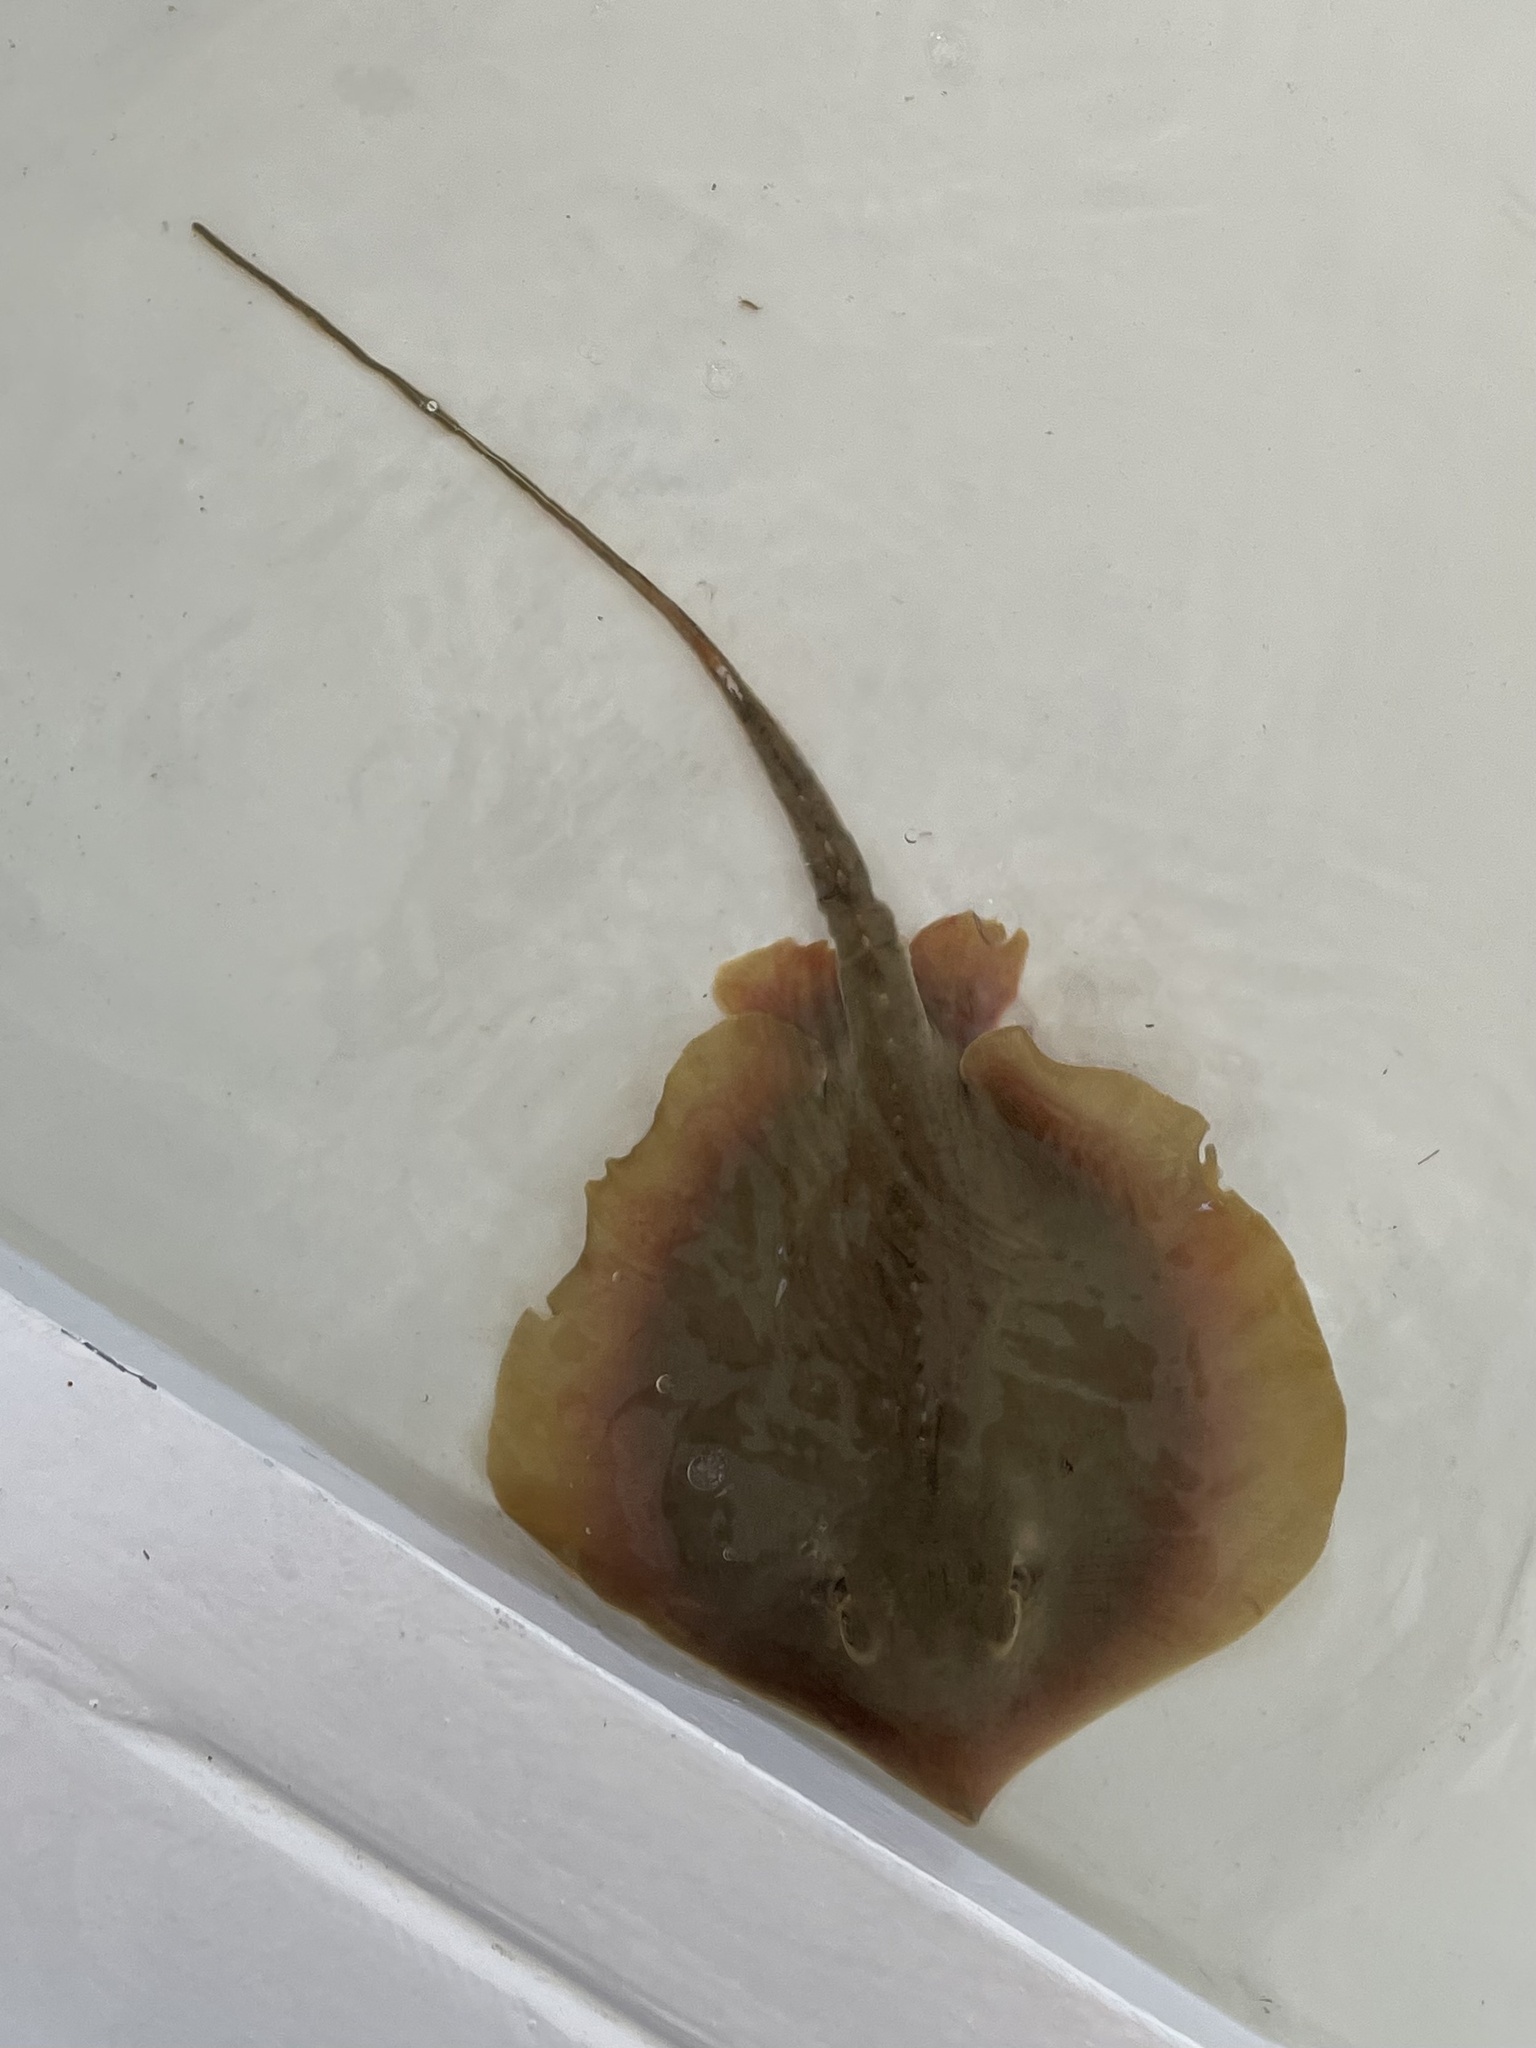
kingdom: Animalia
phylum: Chordata
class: Elasmobranchii
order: Myliobatiformes
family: Dasyatidae
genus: Hypanus
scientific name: Hypanus sabinus
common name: Atlantic stingray
